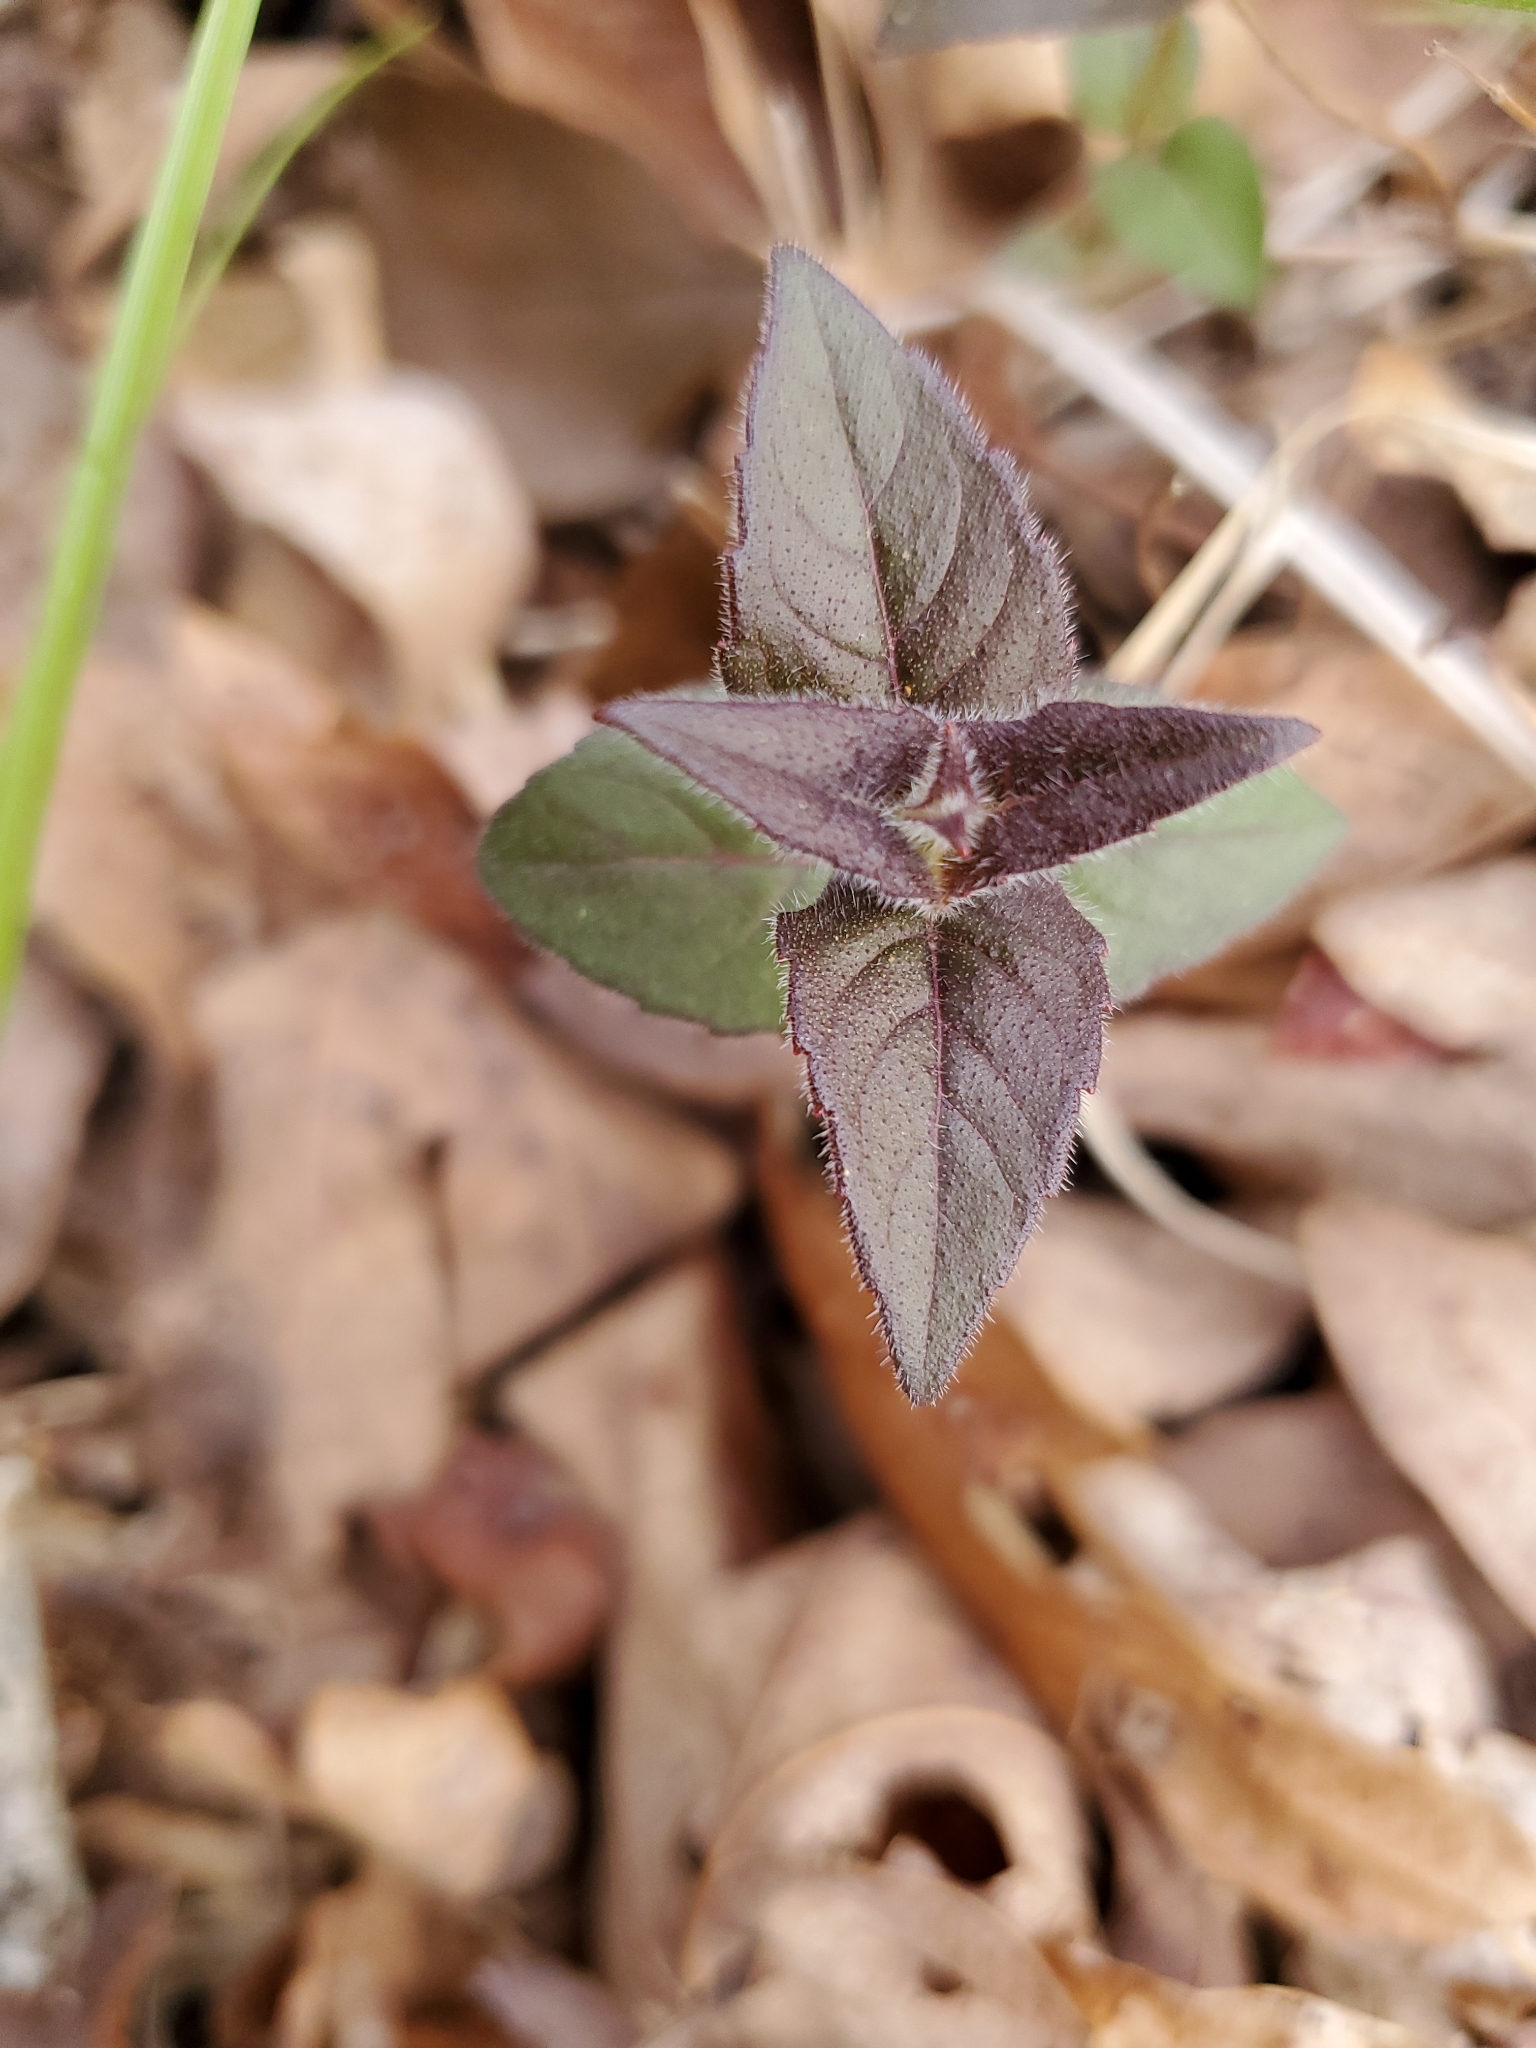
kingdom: Plantae
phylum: Tracheophyta
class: Magnoliopsida
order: Lamiales
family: Lamiaceae
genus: Monarda
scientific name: Monarda bradburiana
